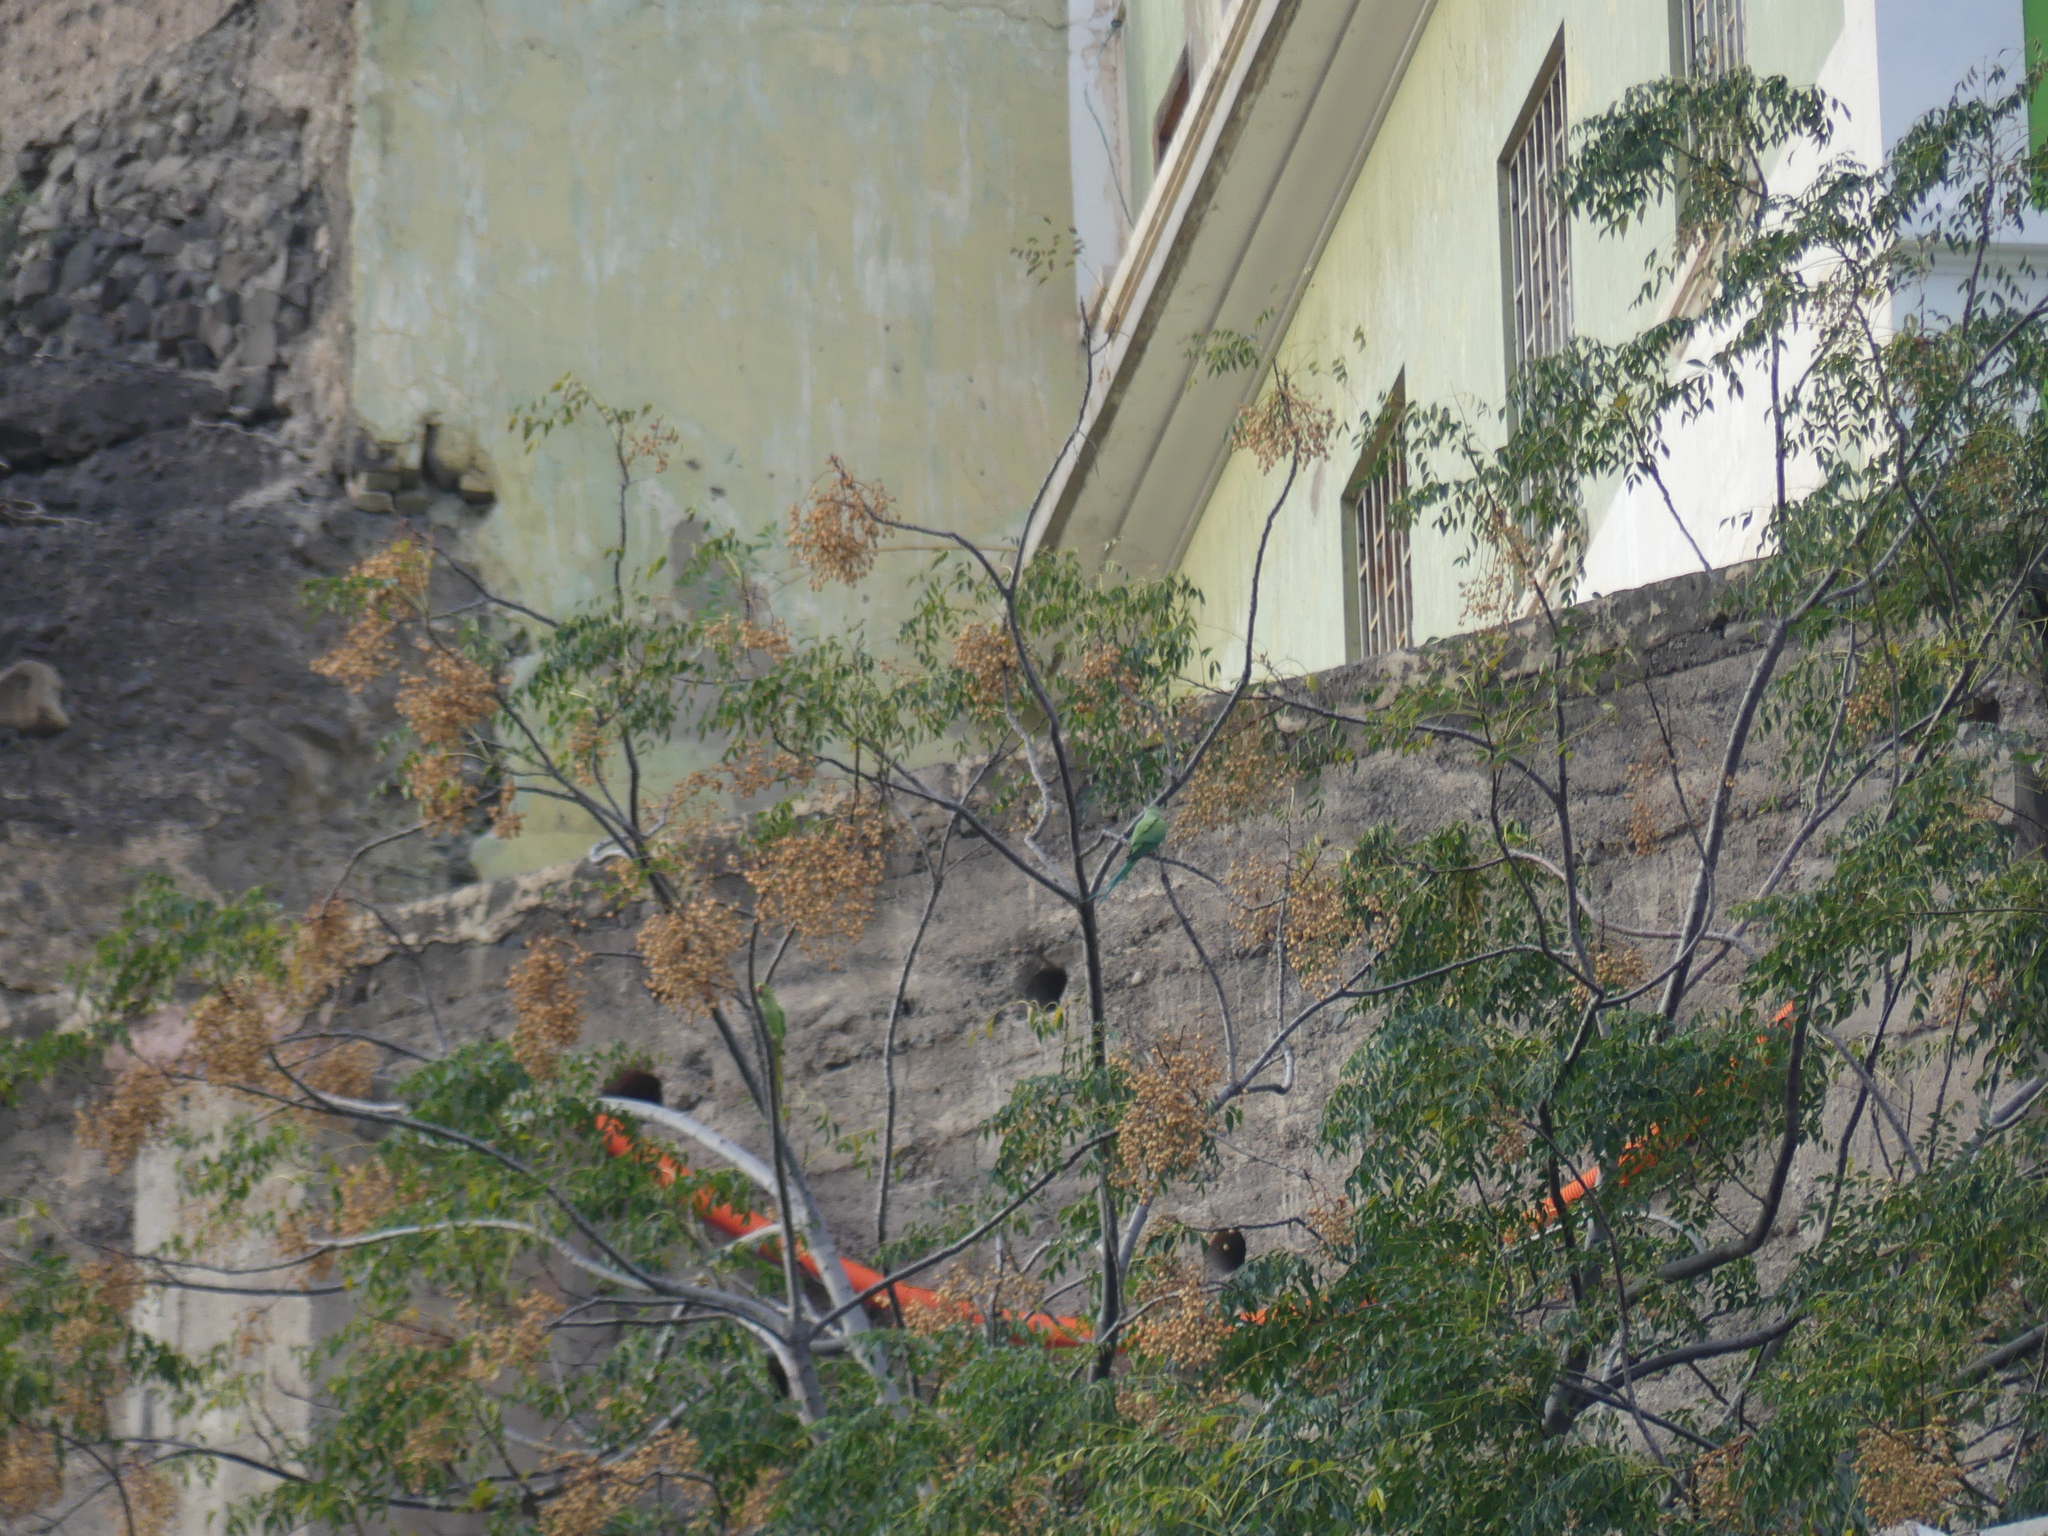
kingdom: Animalia
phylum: Chordata
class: Aves
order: Psittaciformes
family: Psittacidae
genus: Psittacula
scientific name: Psittacula krameri
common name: Rose-ringed parakeet
